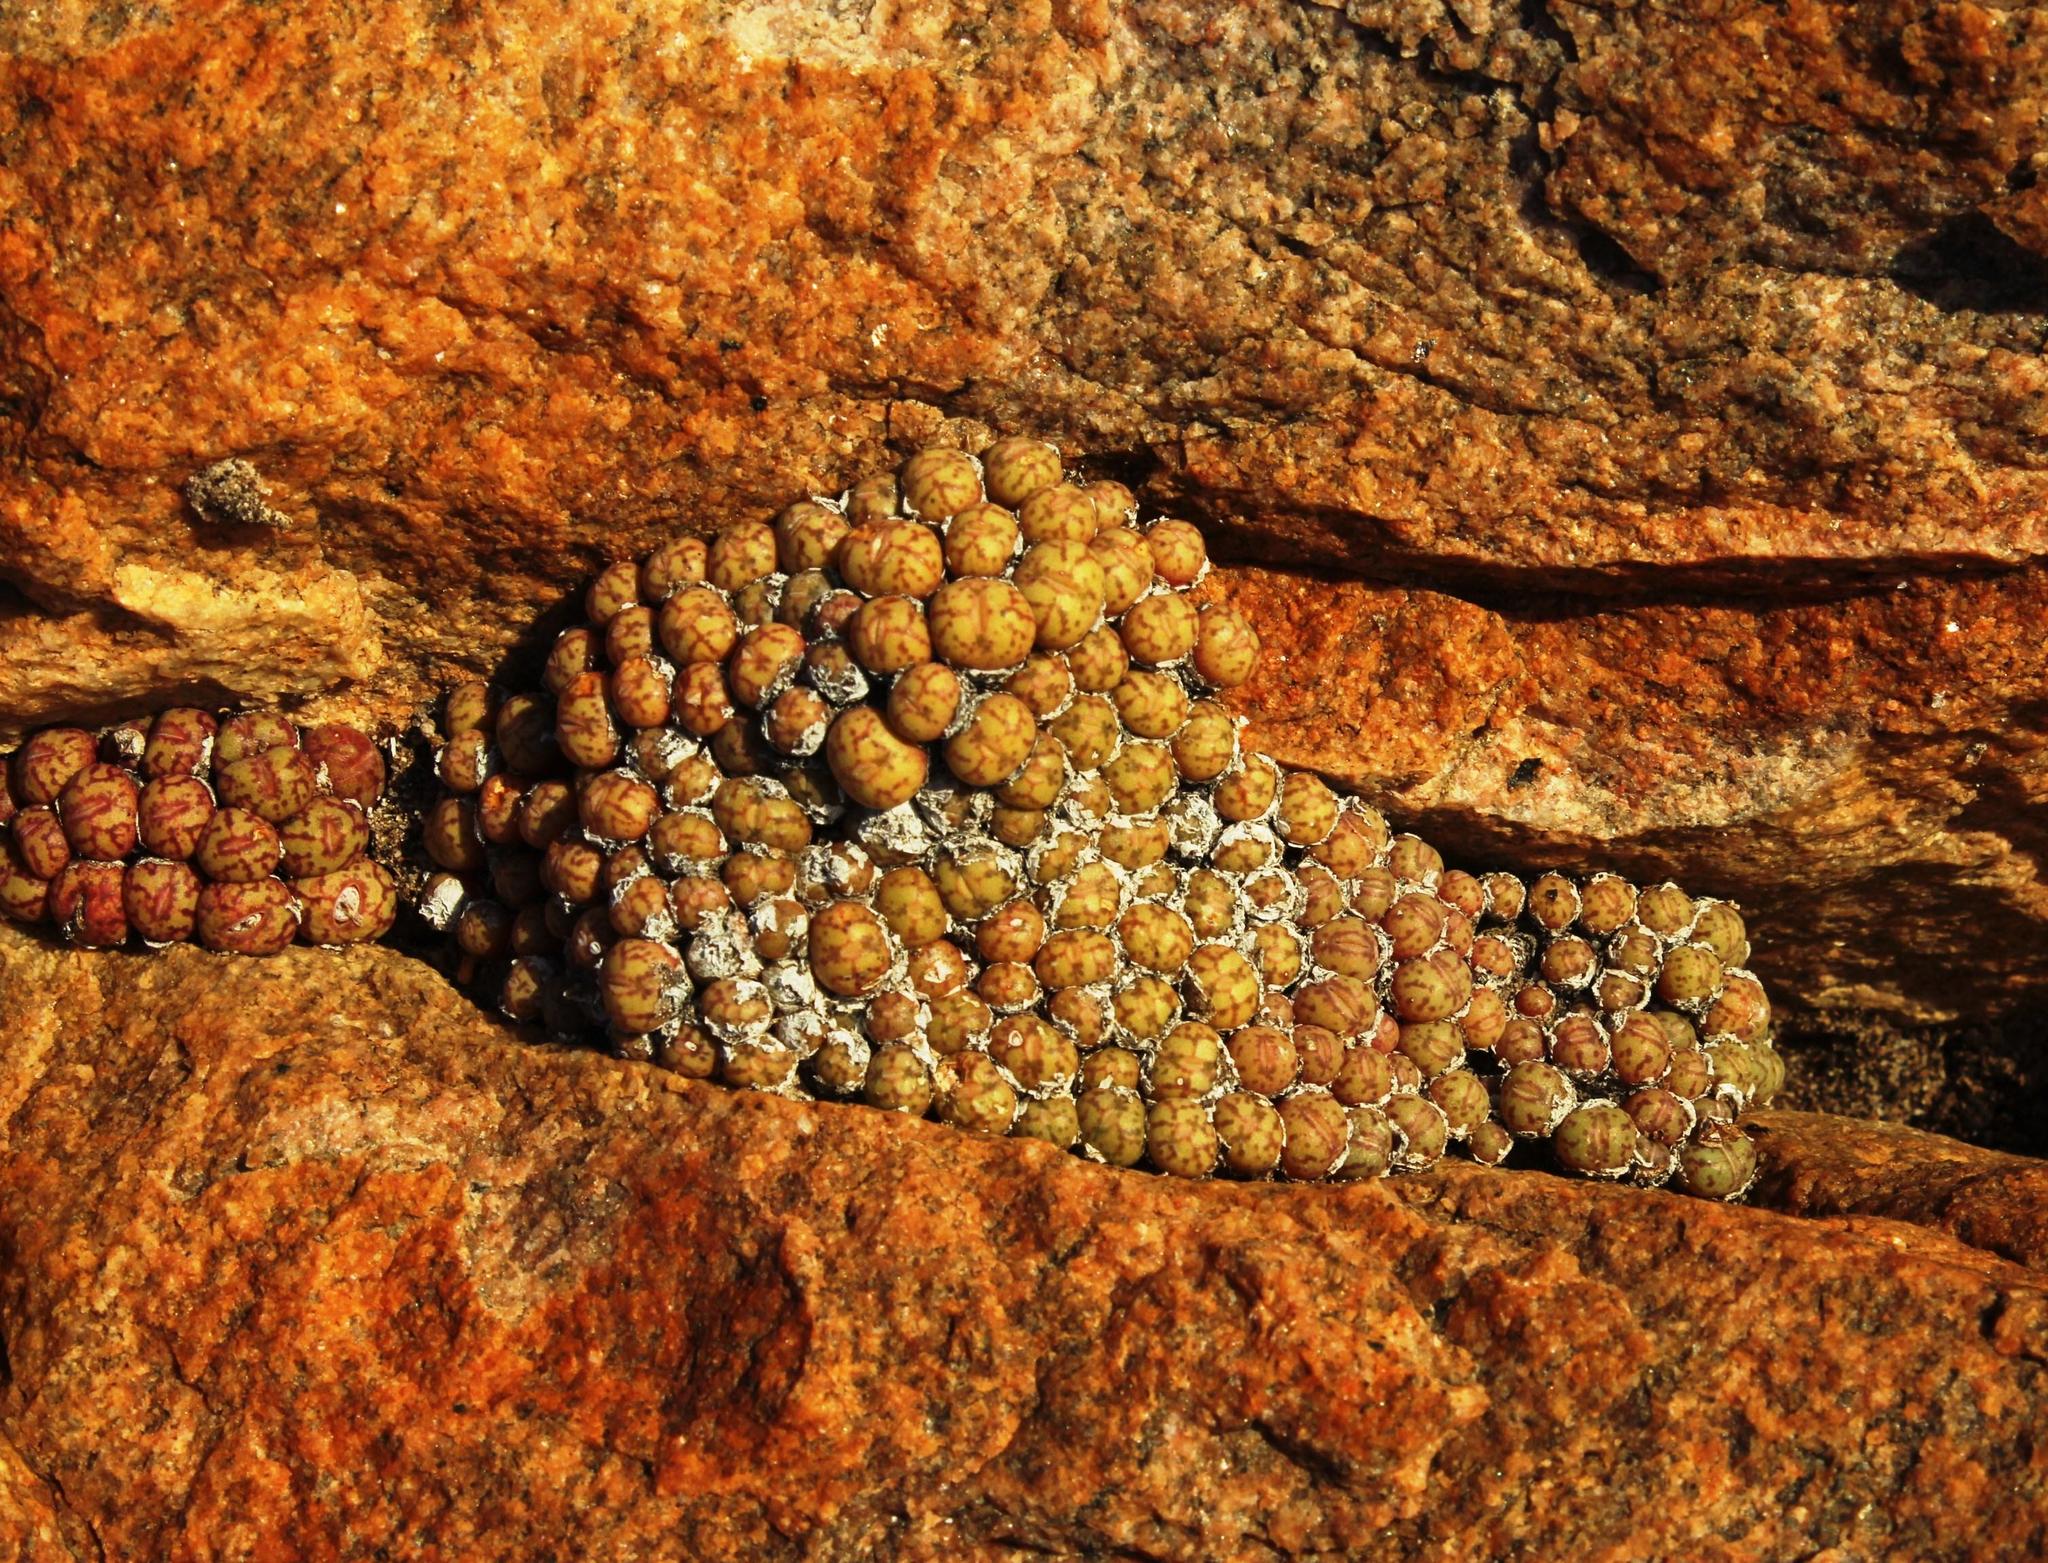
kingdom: Plantae
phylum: Tracheophyta
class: Magnoliopsida
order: Caryophyllales
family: Aizoaceae
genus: Conophytum
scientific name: Conophytum uviforme
